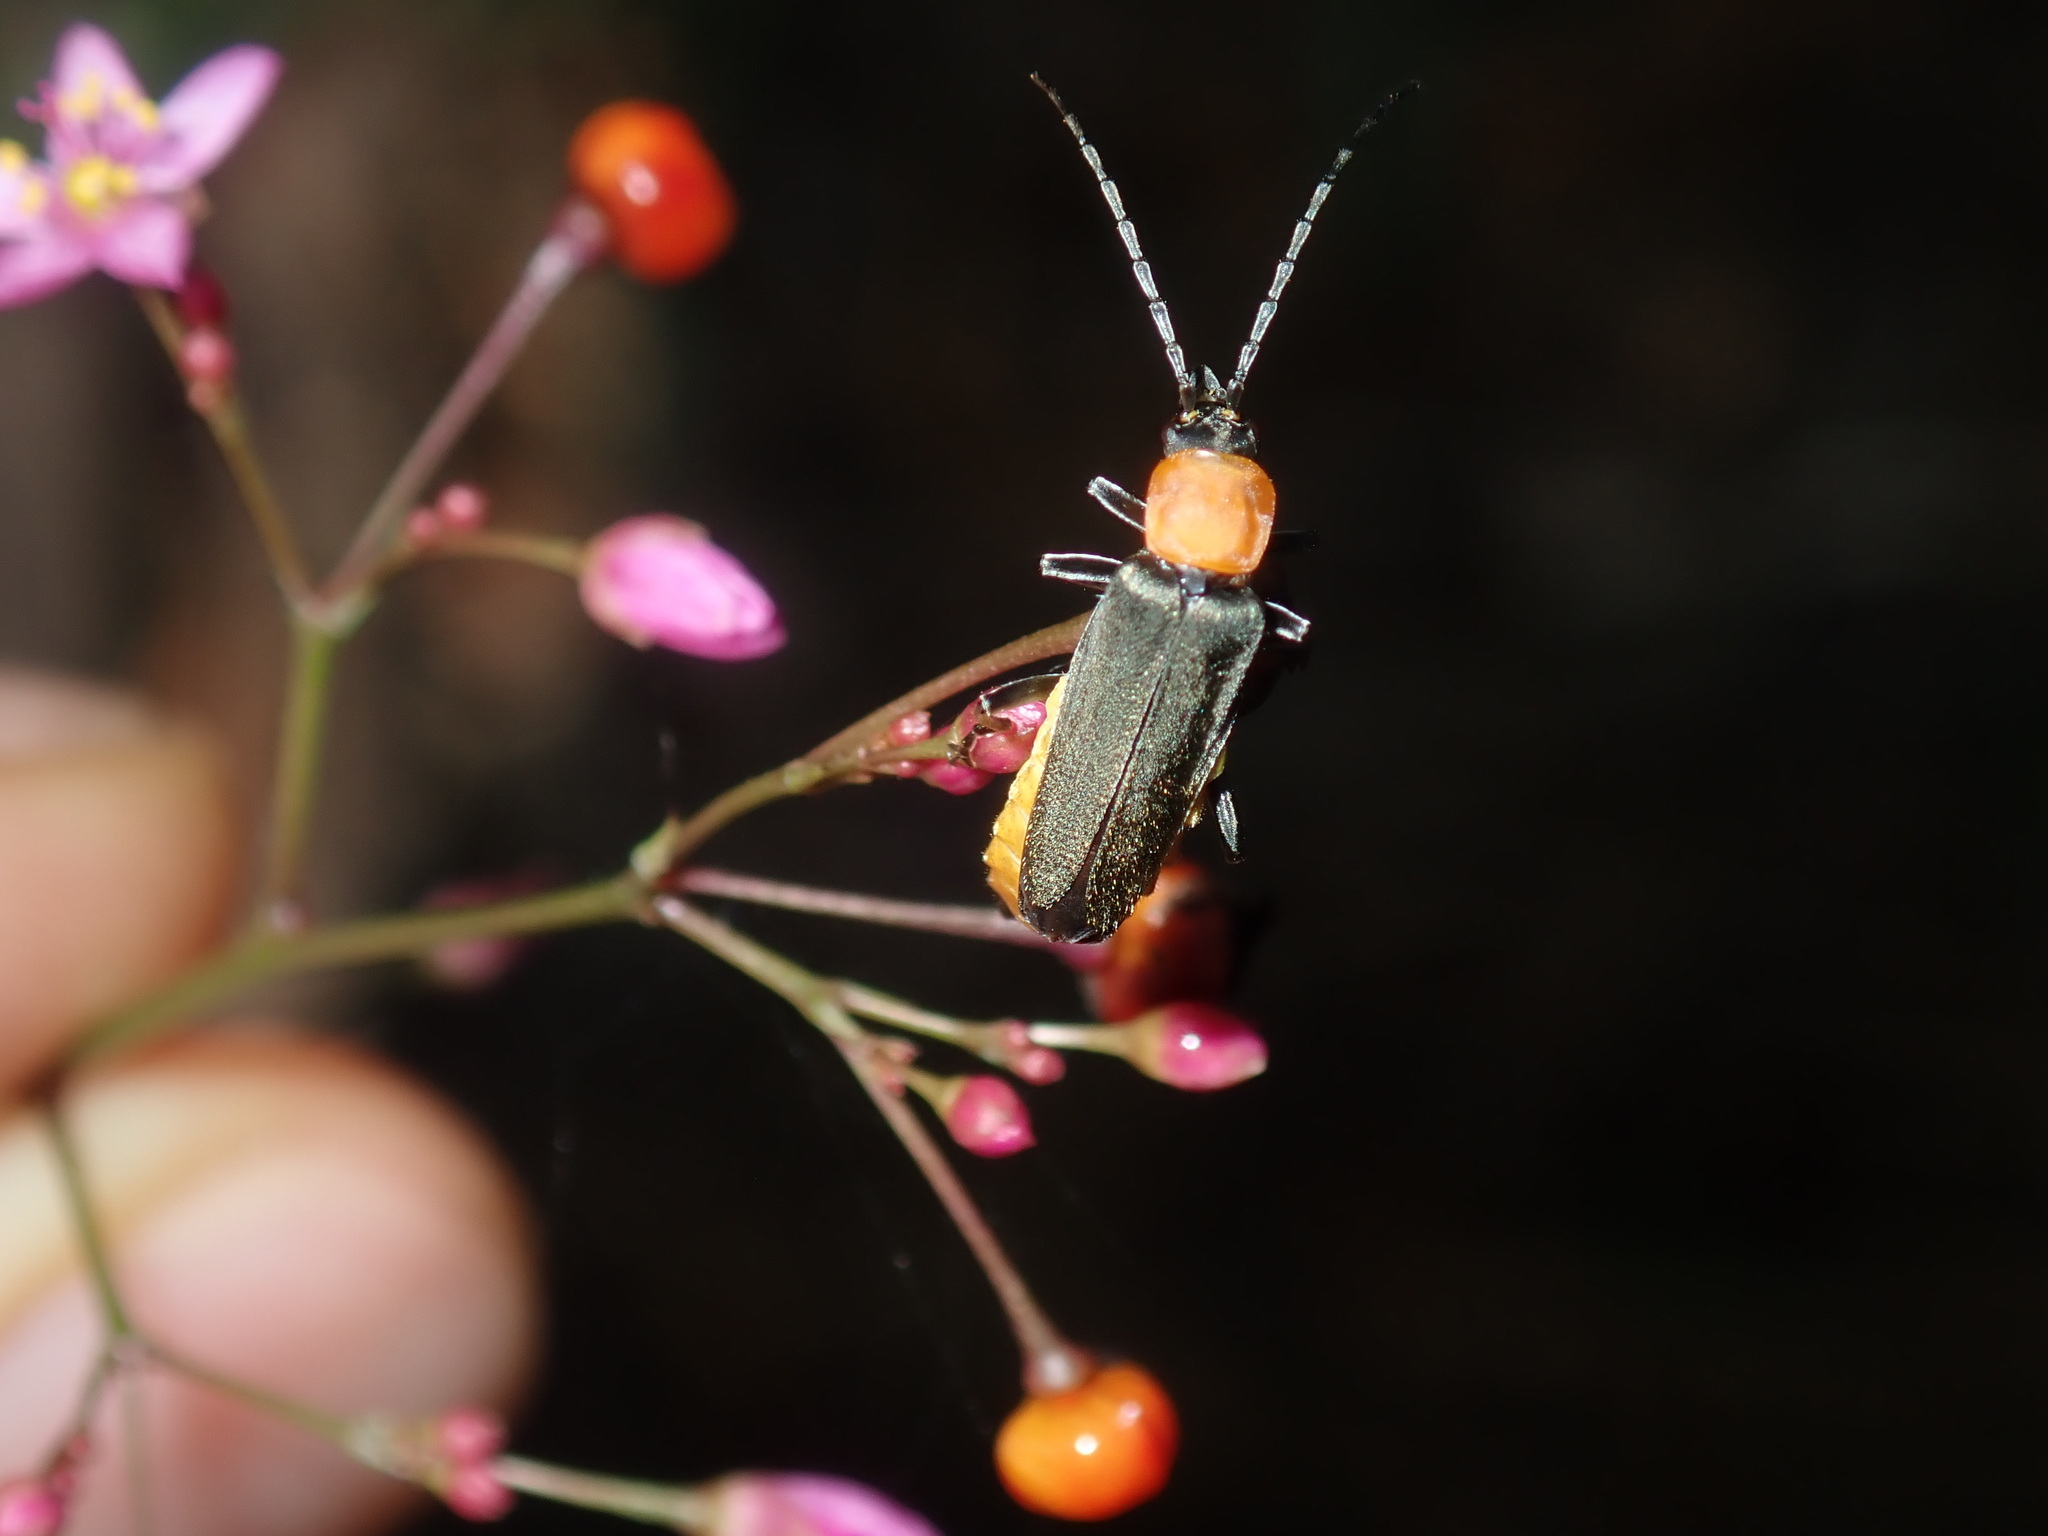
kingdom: Animalia
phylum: Arthropoda
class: Insecta
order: Coleoptera
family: Cantharidae
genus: Chauliognathus
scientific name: Chauliognathus
